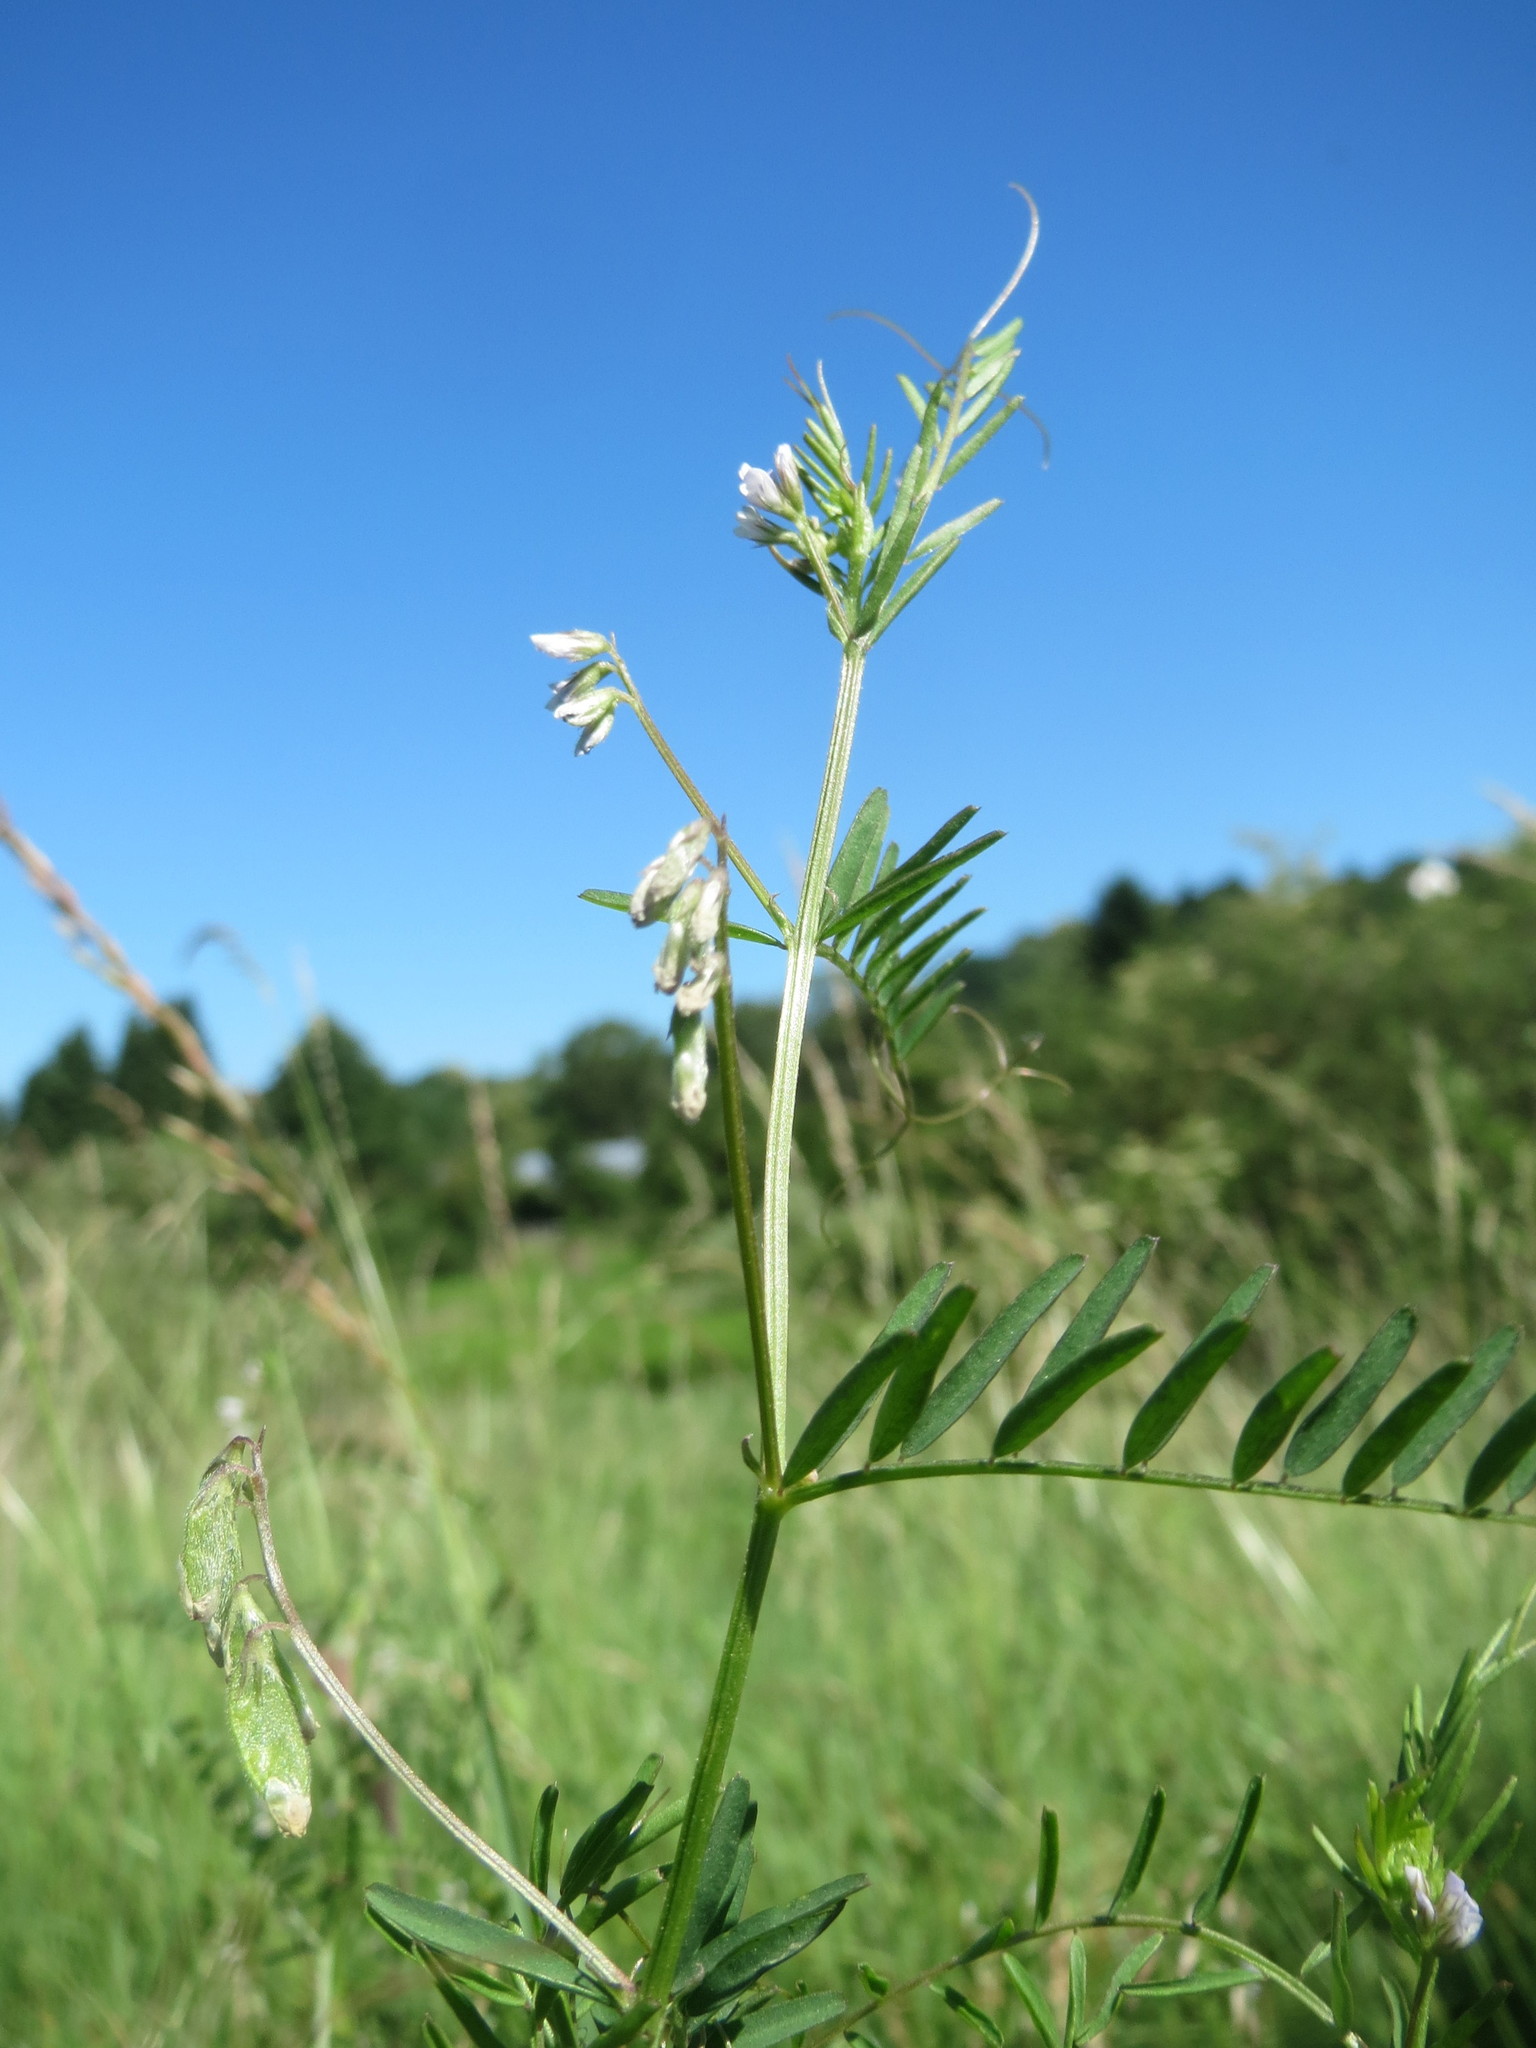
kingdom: Plantae
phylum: Tracheophyta
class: Magnoliopsida
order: Fabales
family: Fabaceae
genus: Vicia
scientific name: Vicia hirsuta
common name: Tiny vetch
